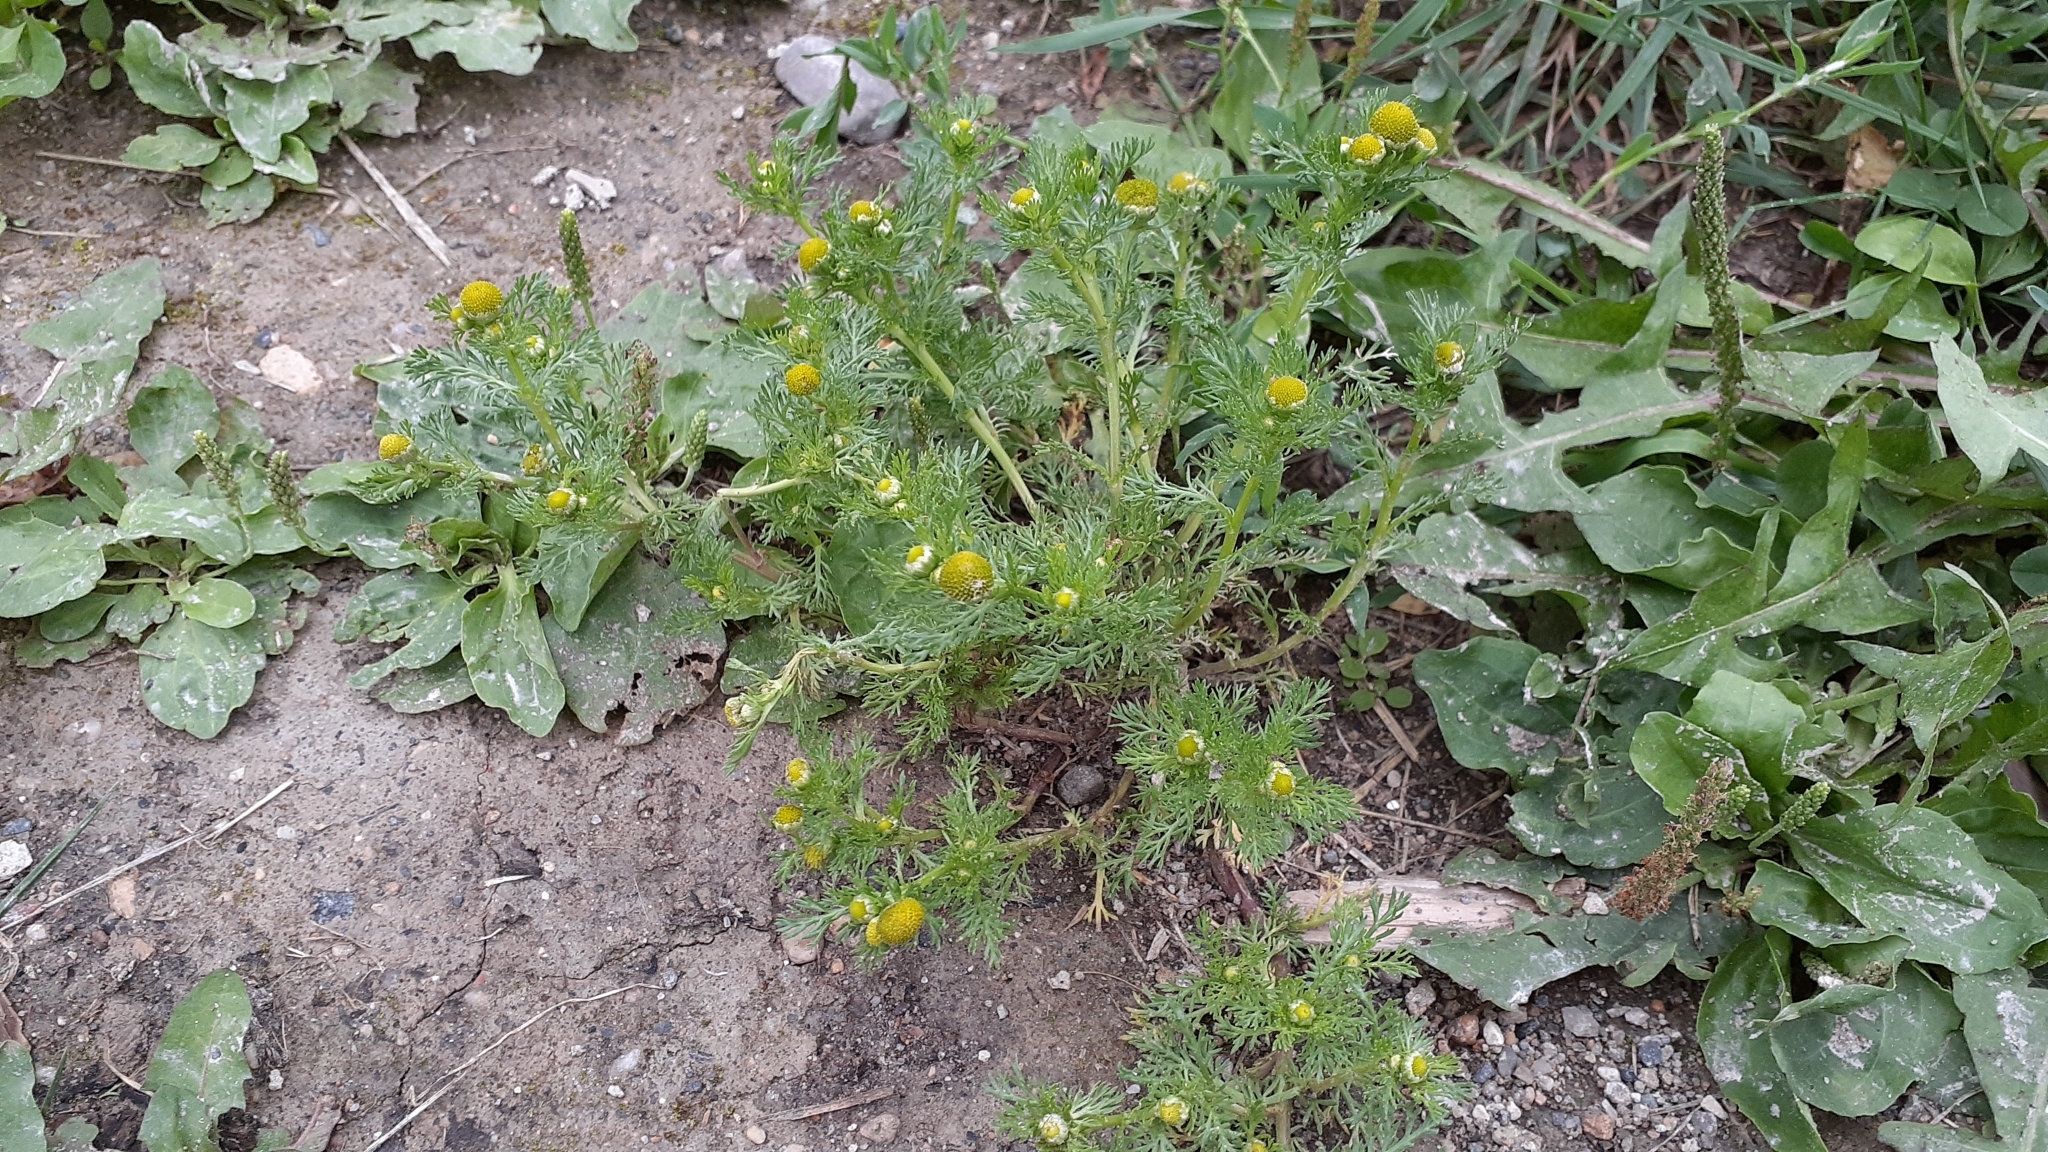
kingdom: Plantae
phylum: Tracheophyta
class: Magnoliopsida
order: Asterales
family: Asteraceae
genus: Matricaria
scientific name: Matricaria discoidea
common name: Disc mayweed
